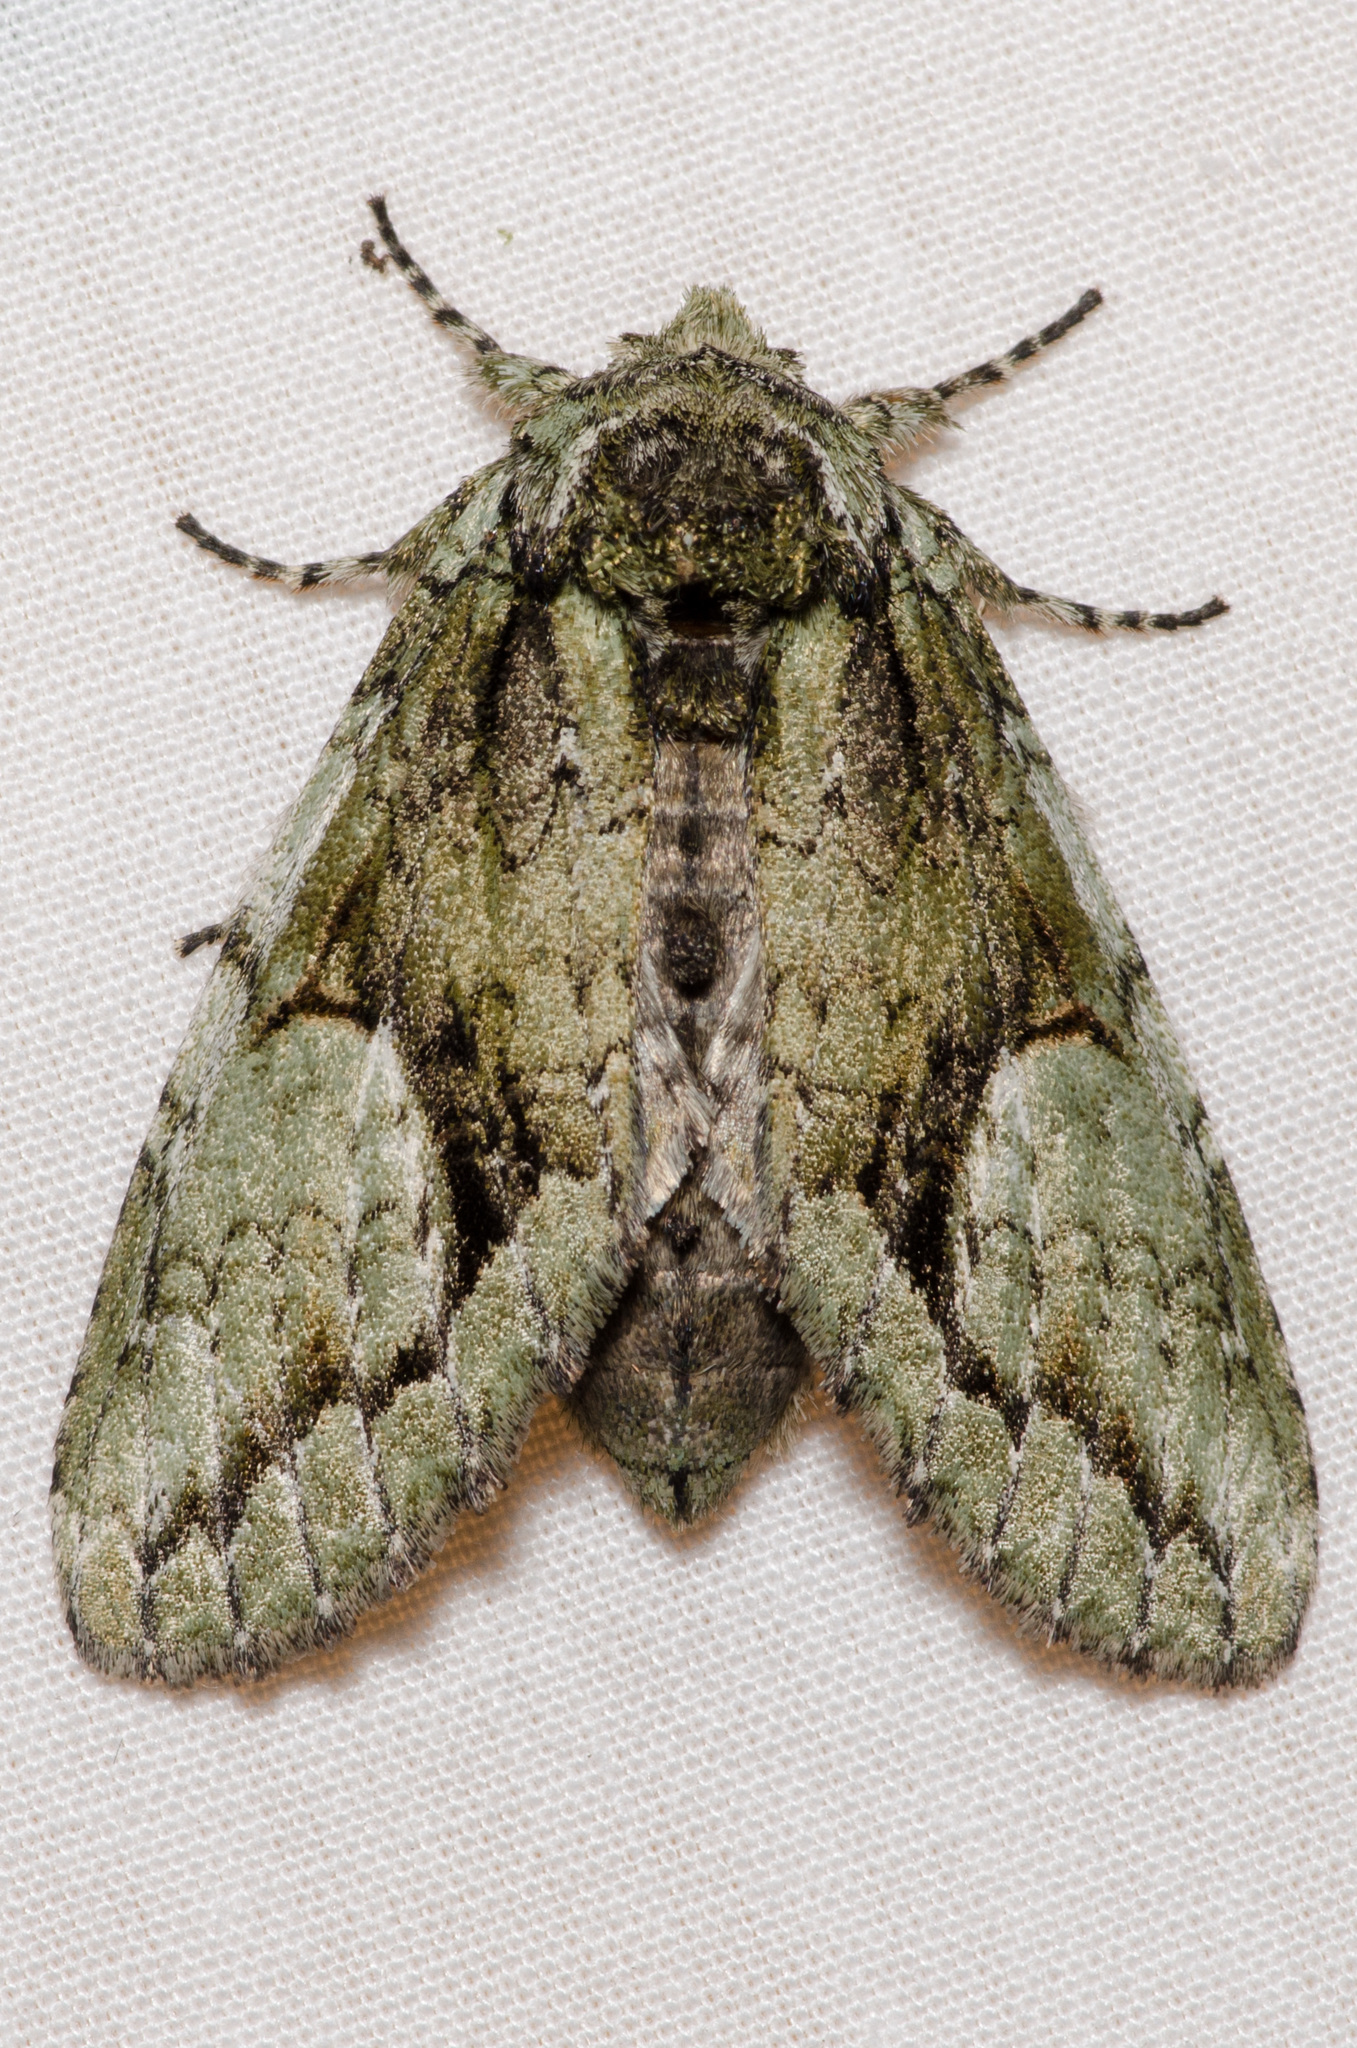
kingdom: Animalia
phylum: Arthropoda
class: Insecta
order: Lepidoptera
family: Notodontidae
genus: Heterocampa
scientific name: Heterocampa
